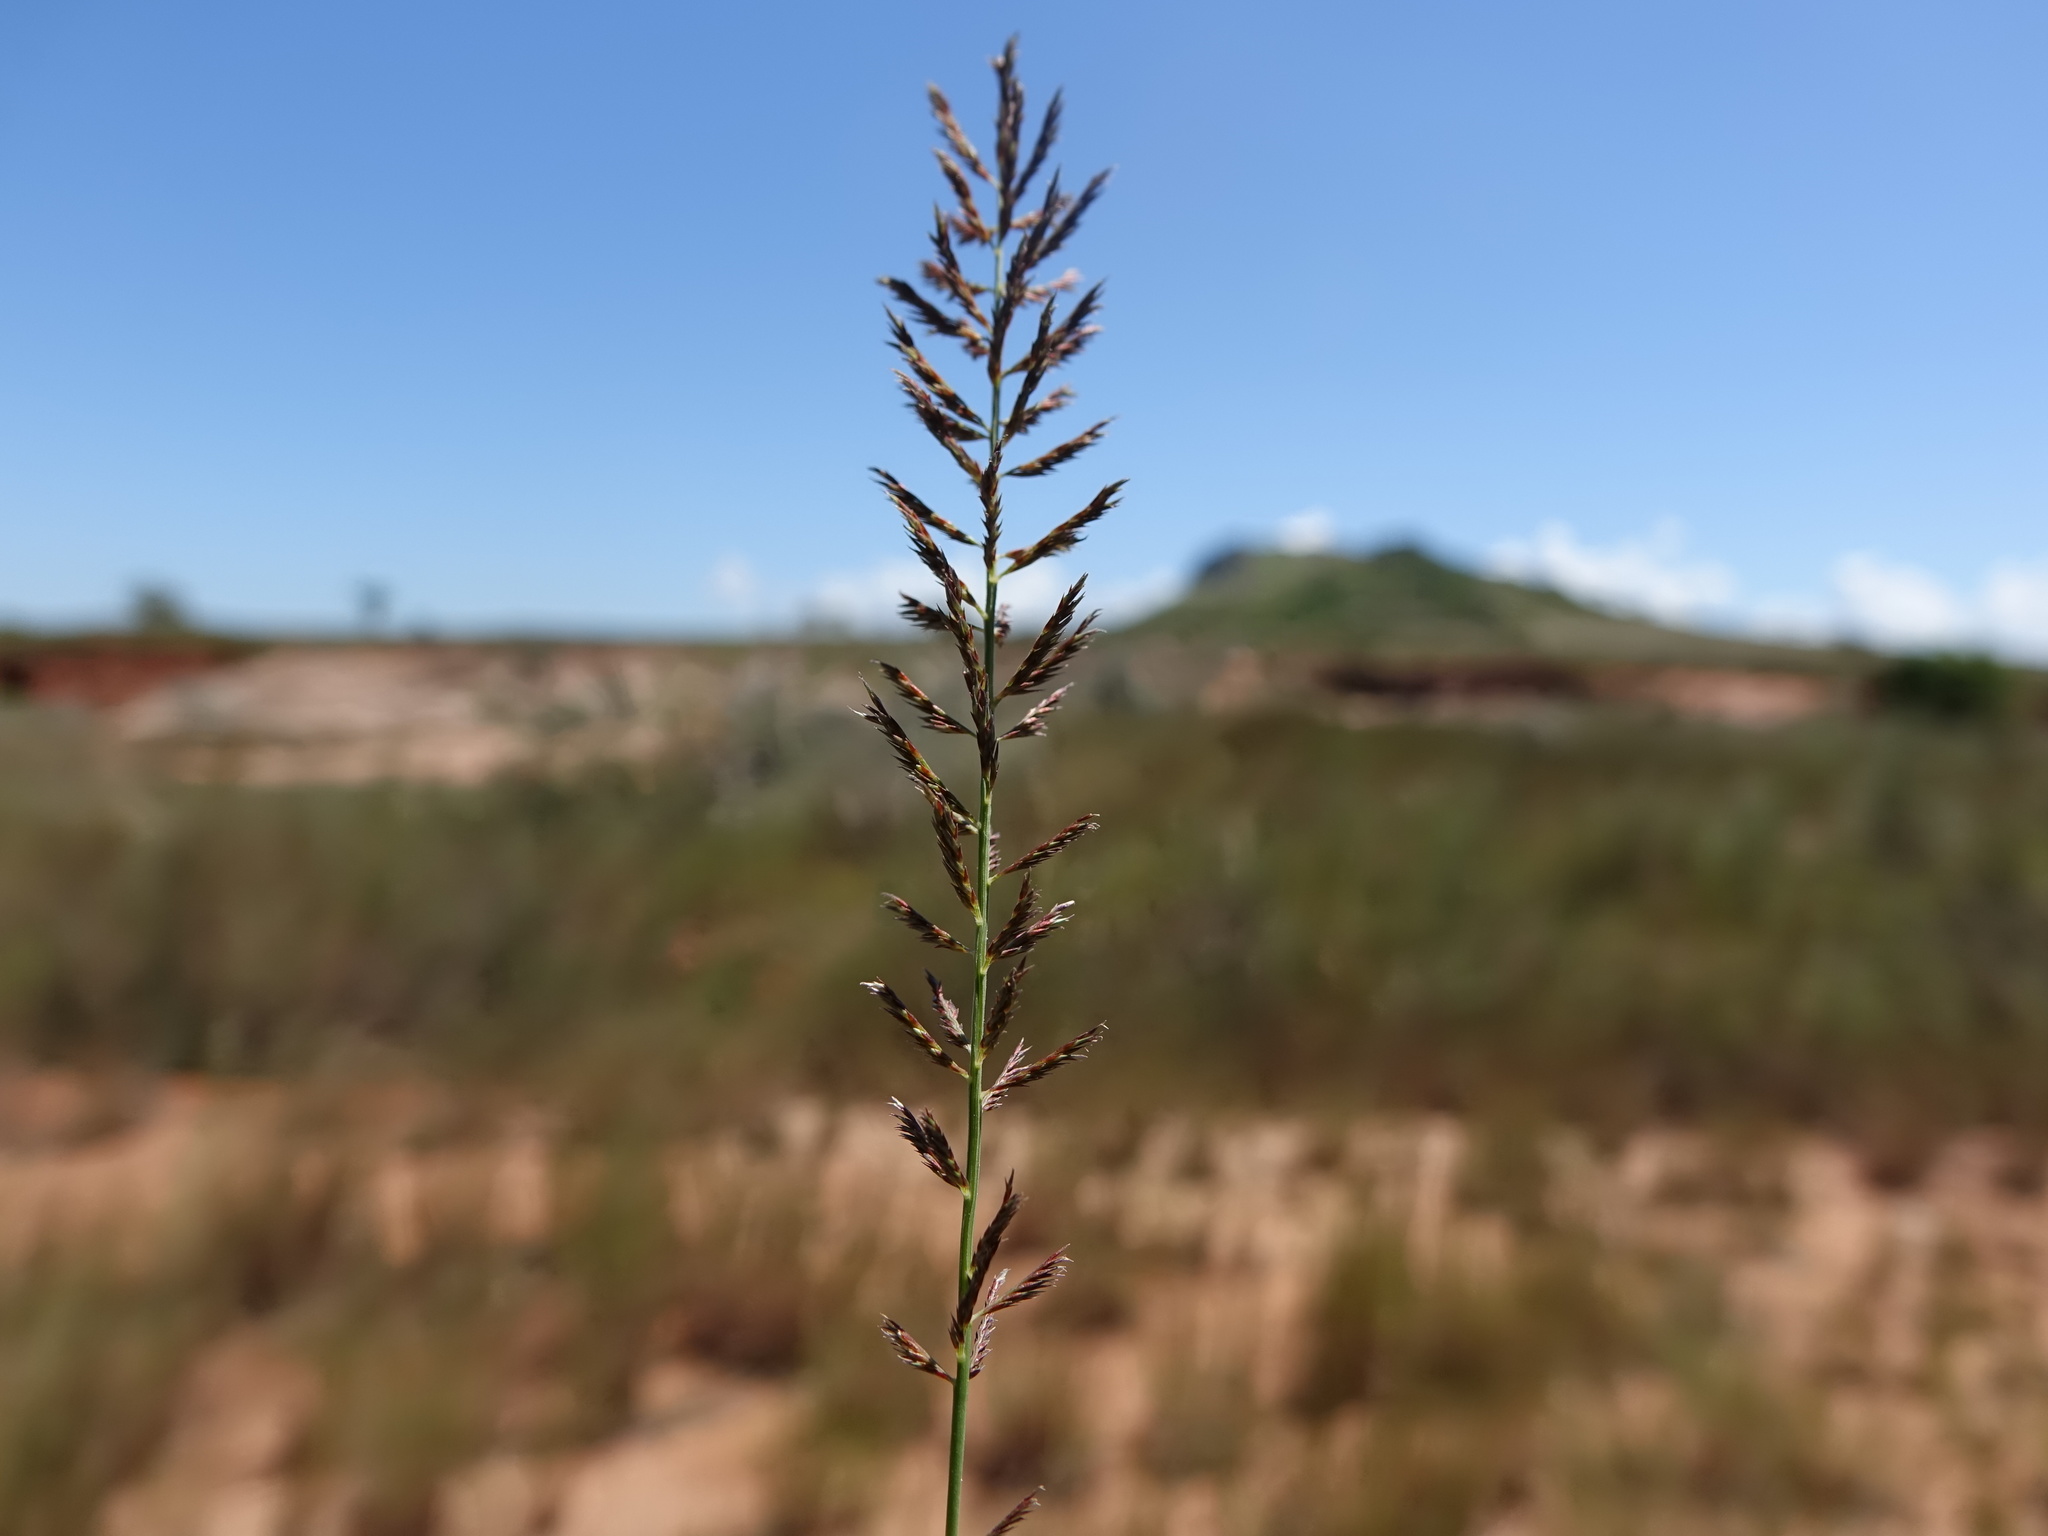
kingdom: Plantae
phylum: Tracheophyta
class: Liliopsida
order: Poales
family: Poaceae
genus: Pogonarthria
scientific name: Pogonarthria squarrosa
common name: Grass
